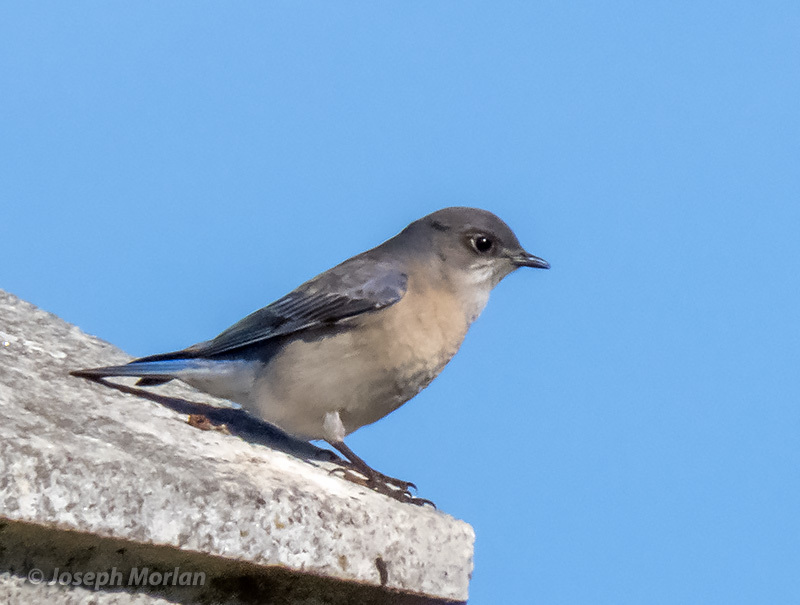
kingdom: Animalia
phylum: Chordata
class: Aves
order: Passeriformes
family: Turdidae
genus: Sialia
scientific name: Sialia mexicana
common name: Western bluebird
